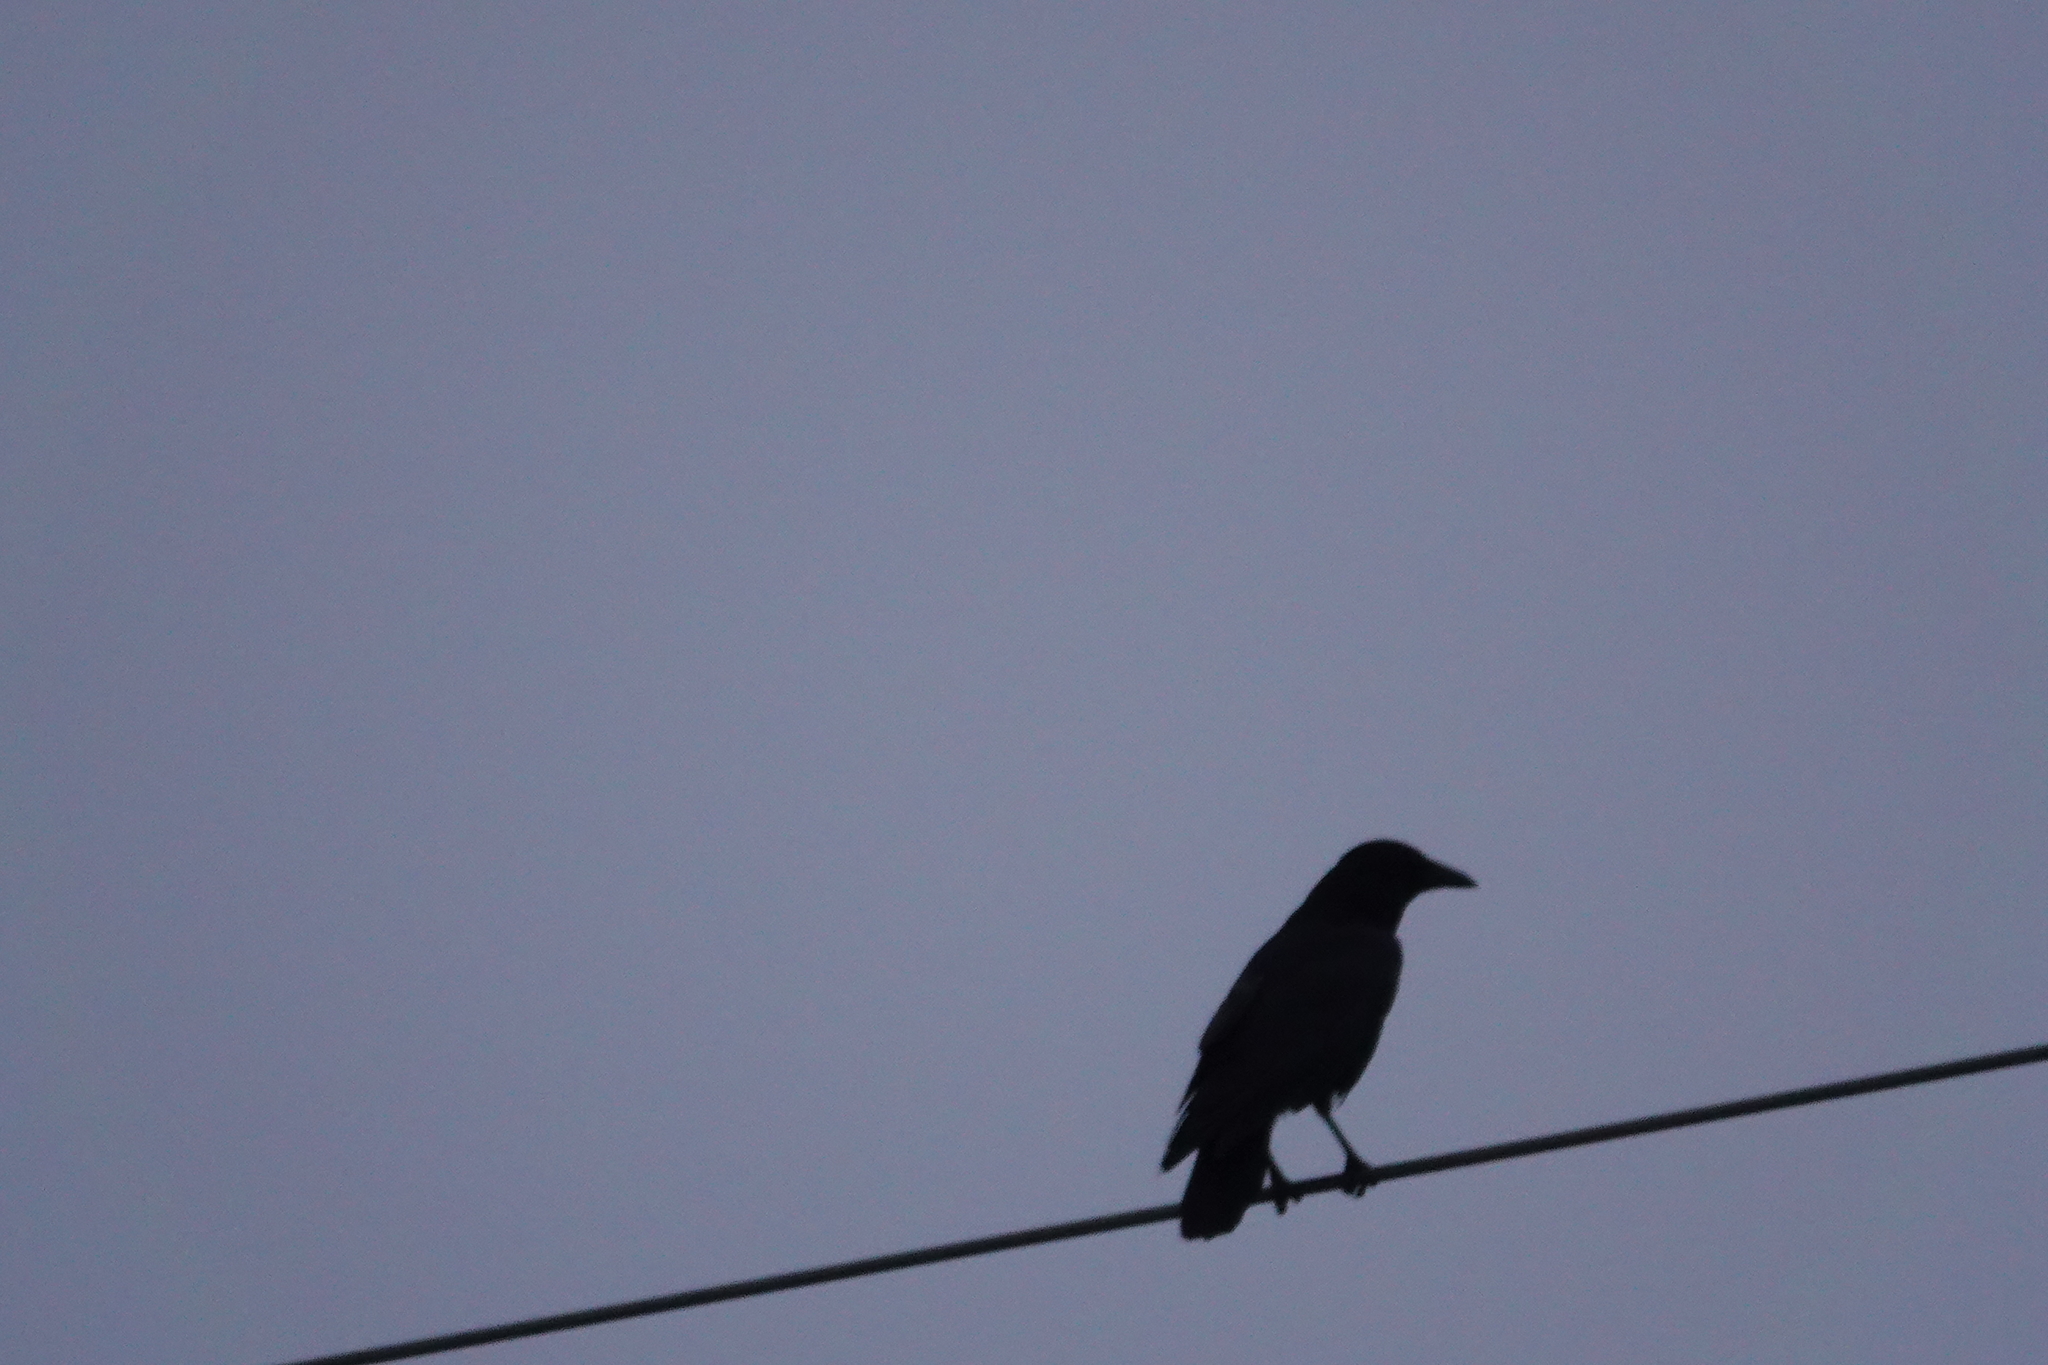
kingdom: Animalia
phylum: Chordata
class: Aves
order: Passeriformes
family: Corvidae
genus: Corvus
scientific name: Corvus corone
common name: Carrion crow
